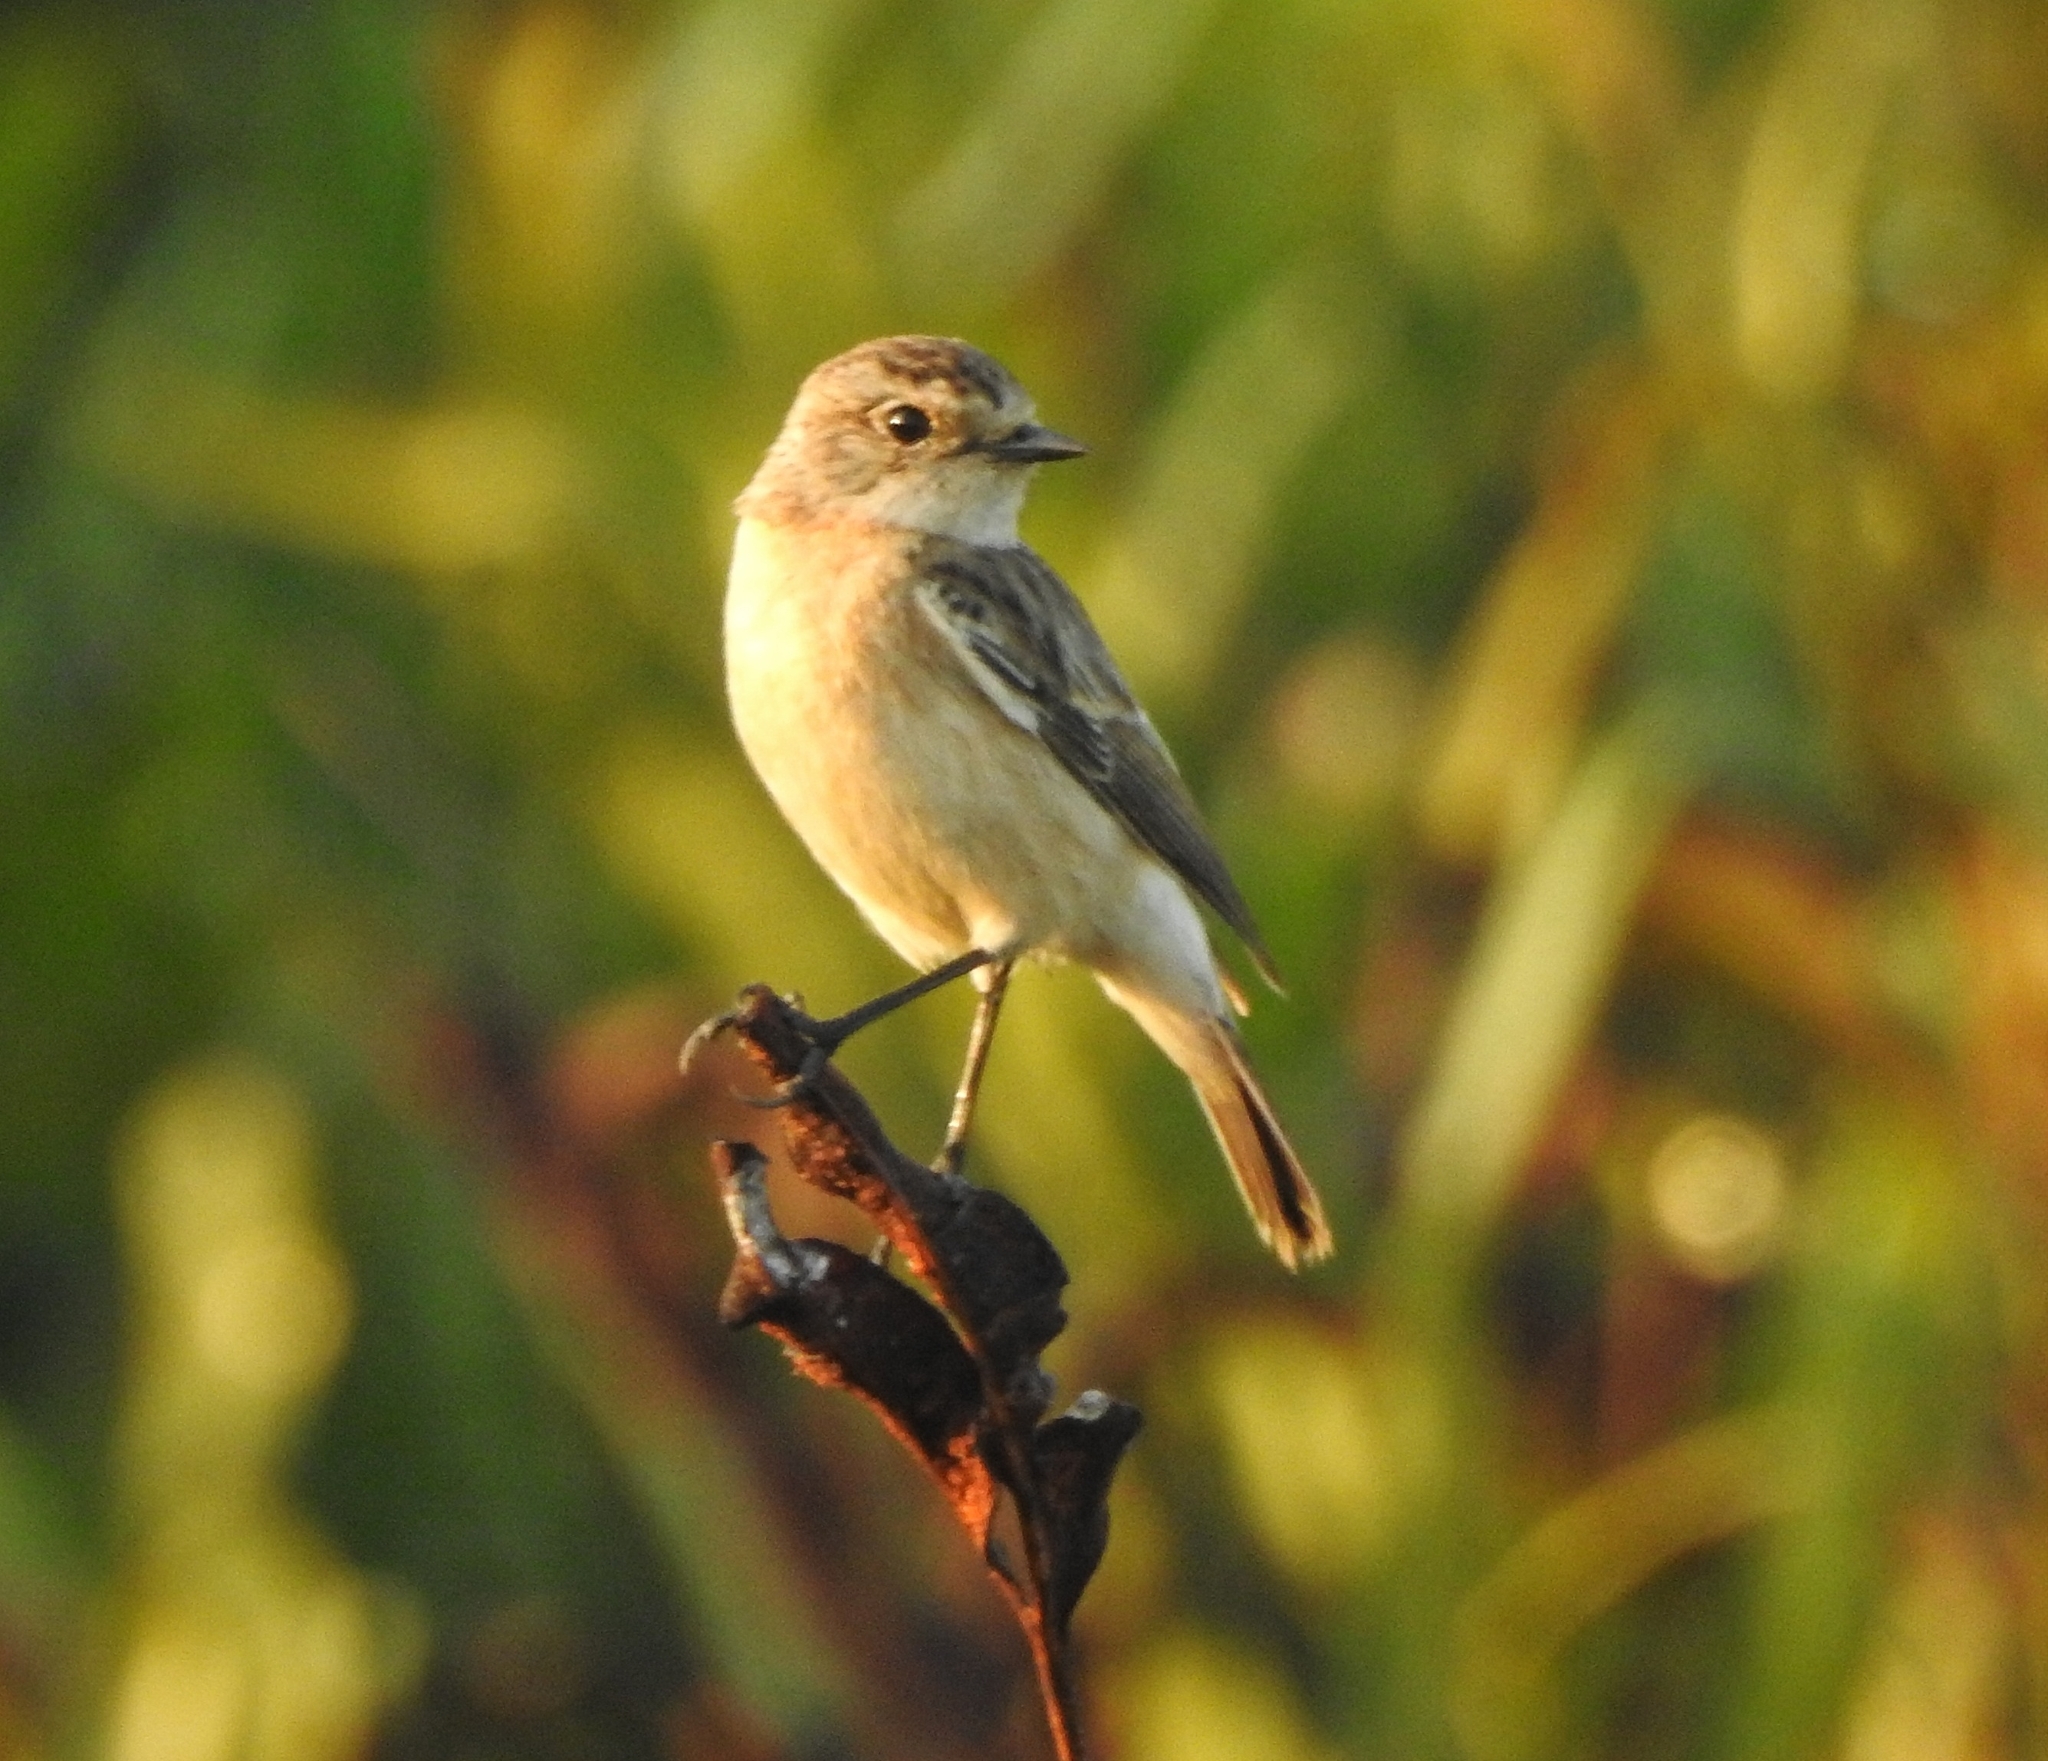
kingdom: Animalia
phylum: Chordata
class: Aves
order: Passeriformes
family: Muscicapidae
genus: Saxicola
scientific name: Saxicola maurus
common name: Siberian stonechat
